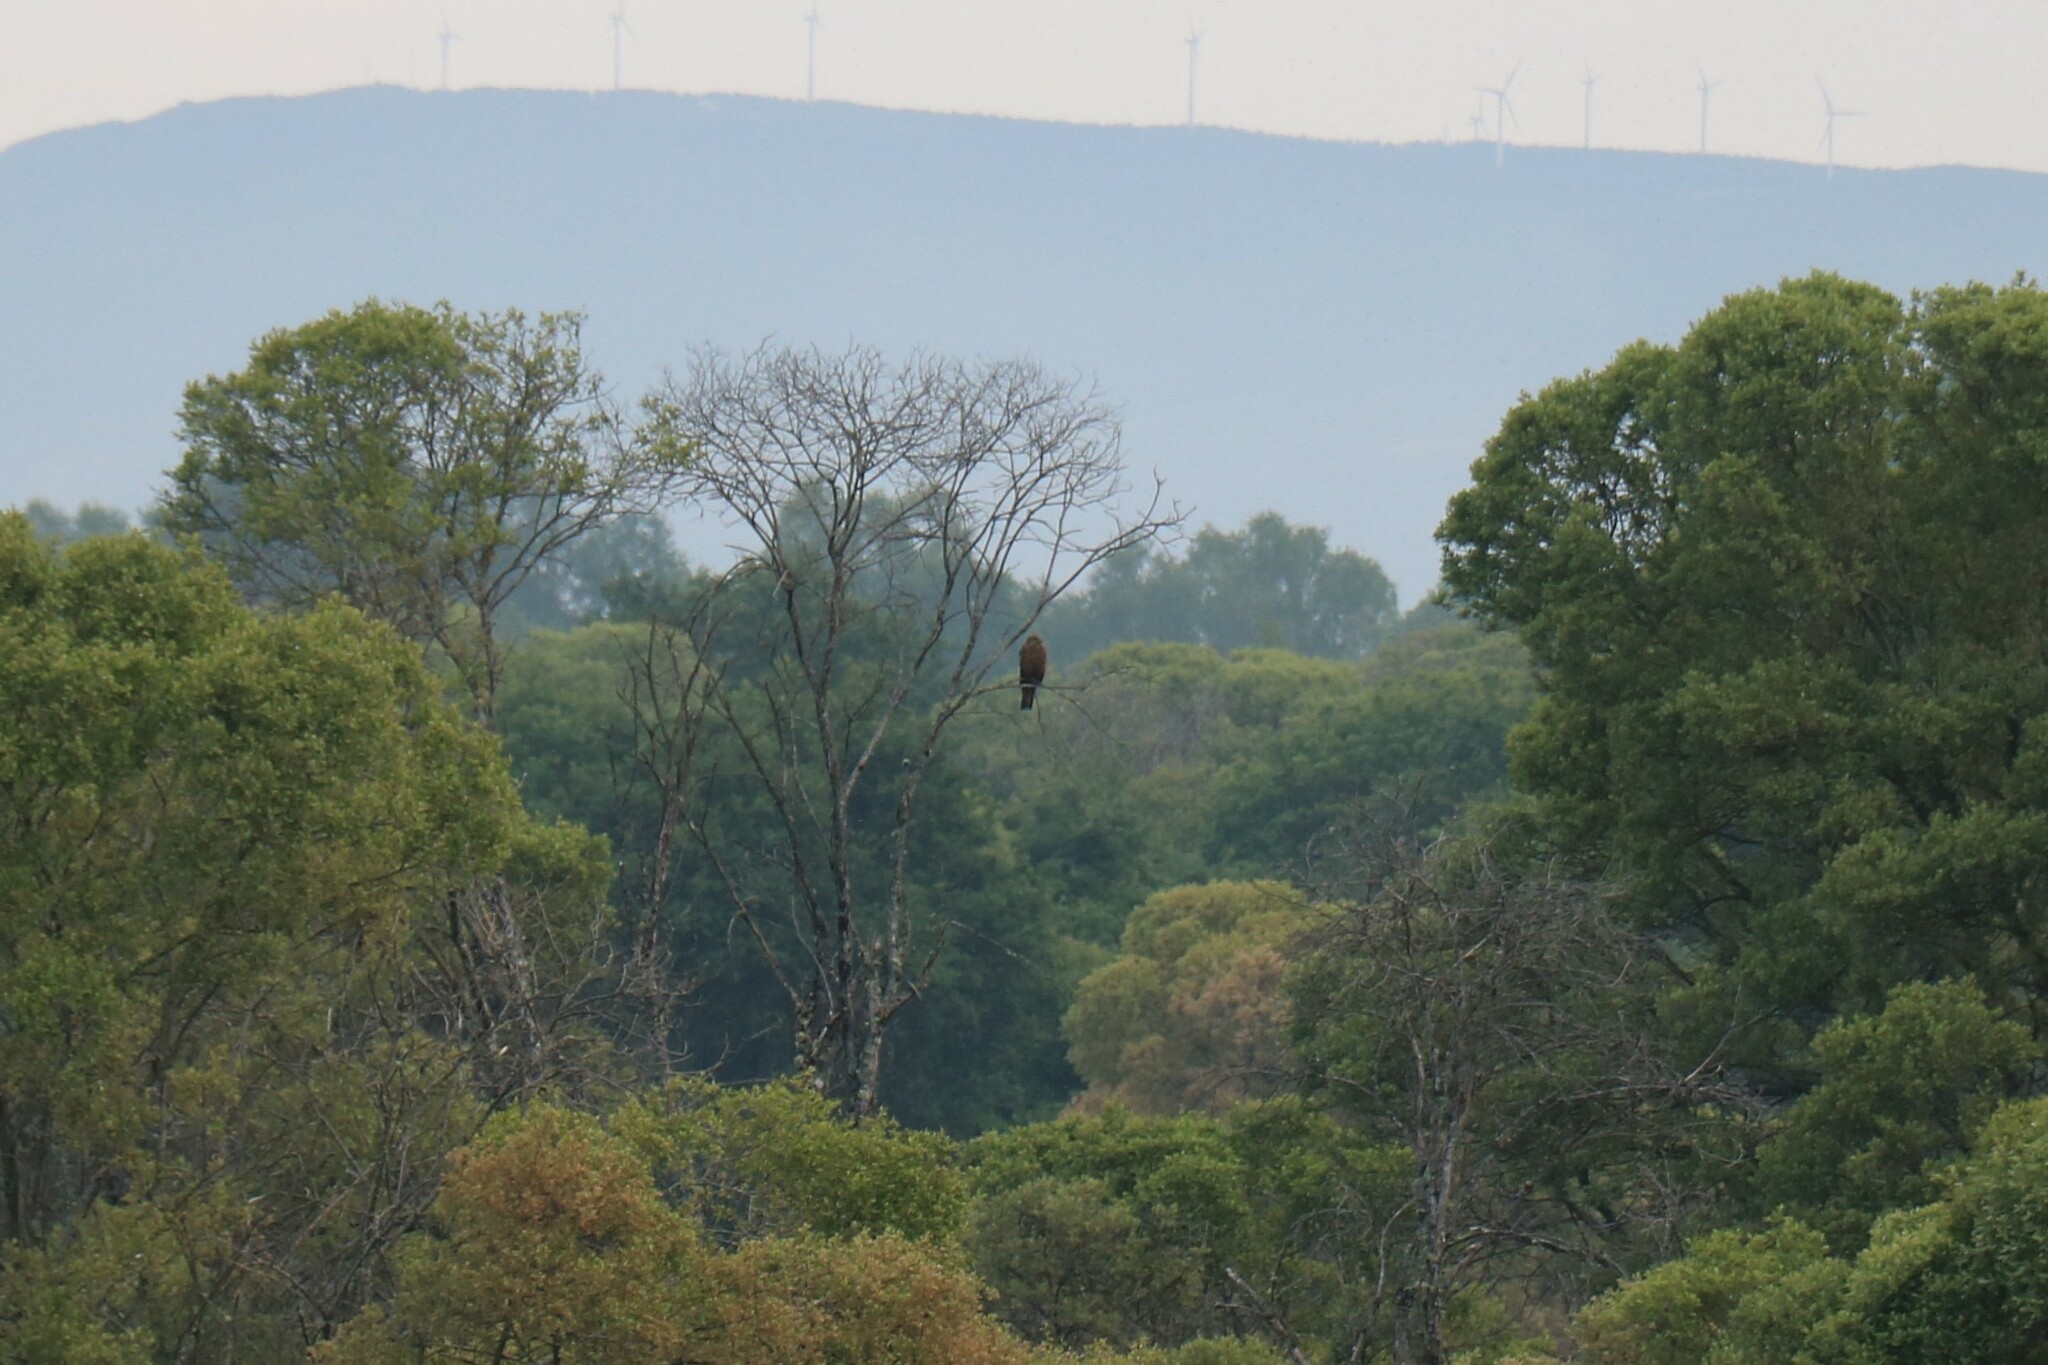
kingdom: Animalia
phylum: Chordata
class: Aves
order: Accipitriformes
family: Accipitridae
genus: Milvus
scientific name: Milvus migrans
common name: Black kite
